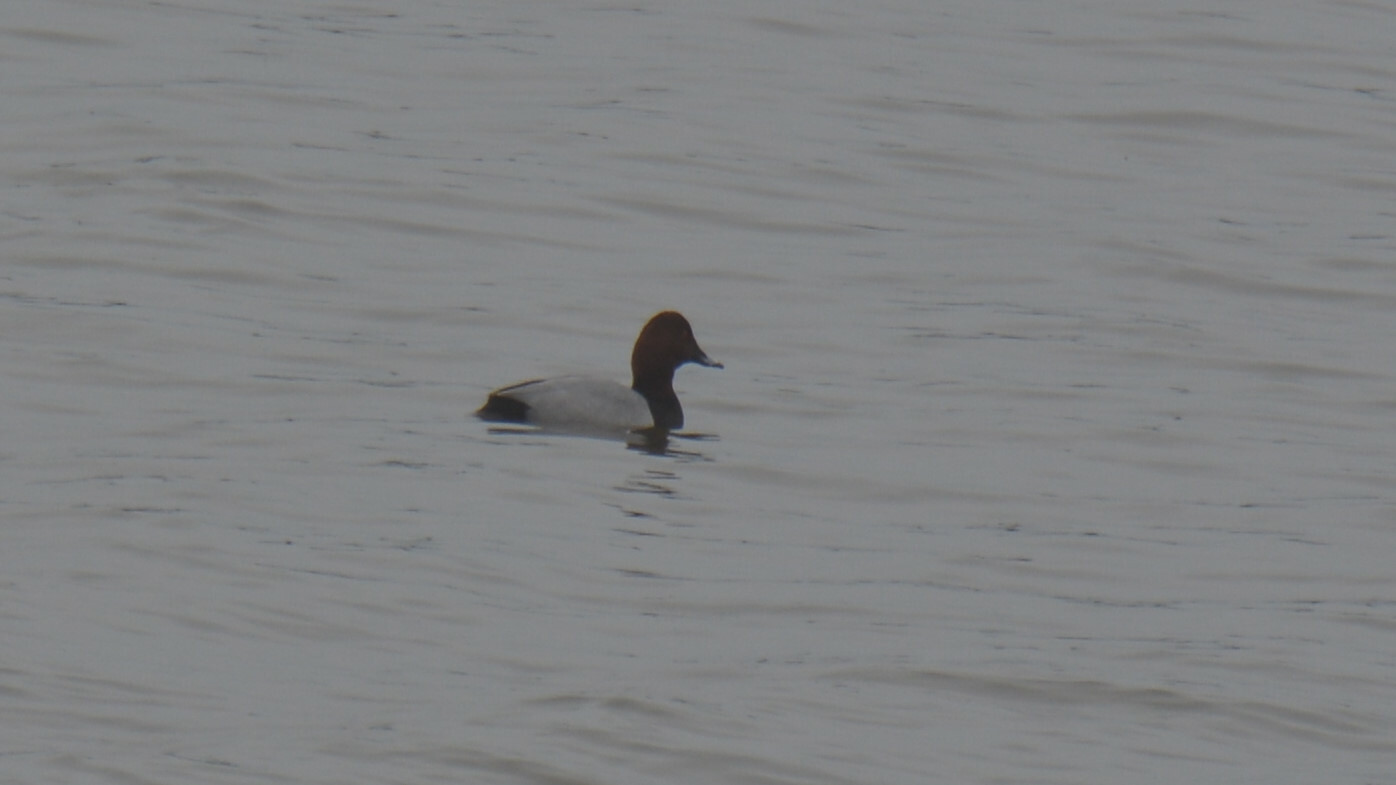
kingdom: Animalia
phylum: Chordata
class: Aves
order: Anseriformes
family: Anatidae
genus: Aythya
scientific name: Aythya ferina
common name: Common pochard
